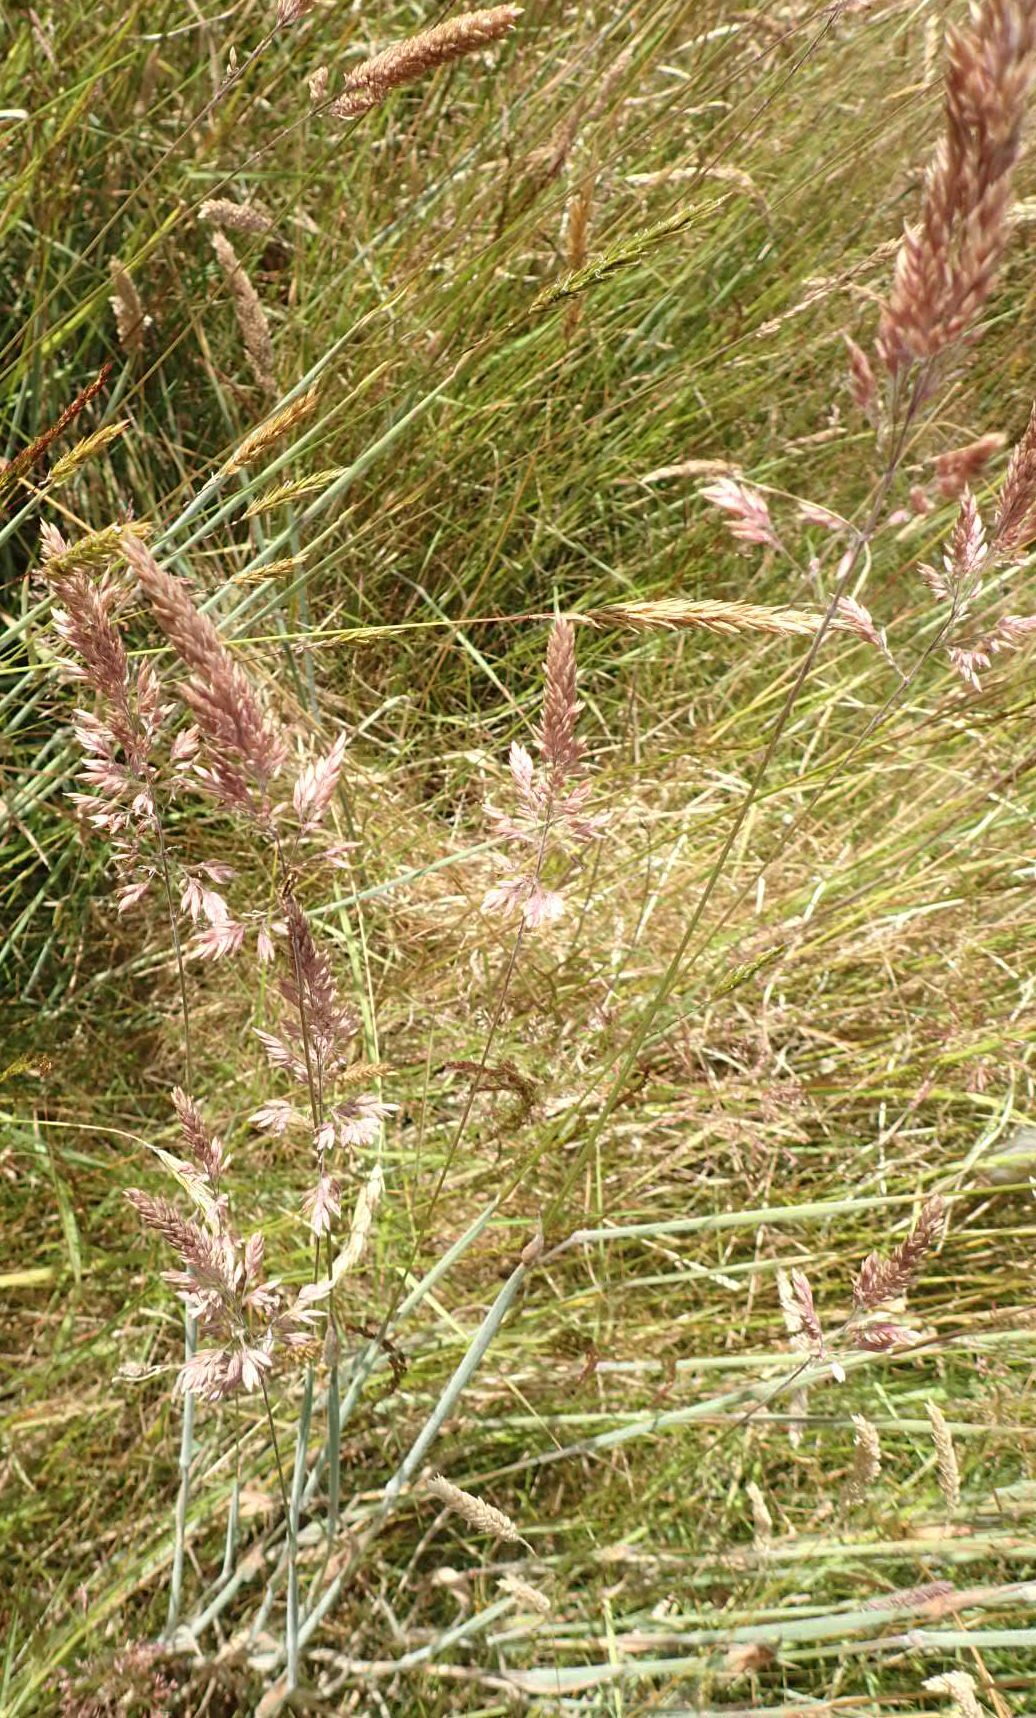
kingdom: Plantae
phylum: Tracheophyta
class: Liliopsida
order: Poales
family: Poaceae
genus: Holcus
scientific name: Holcus lanatus
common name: Yorkshire-fog
